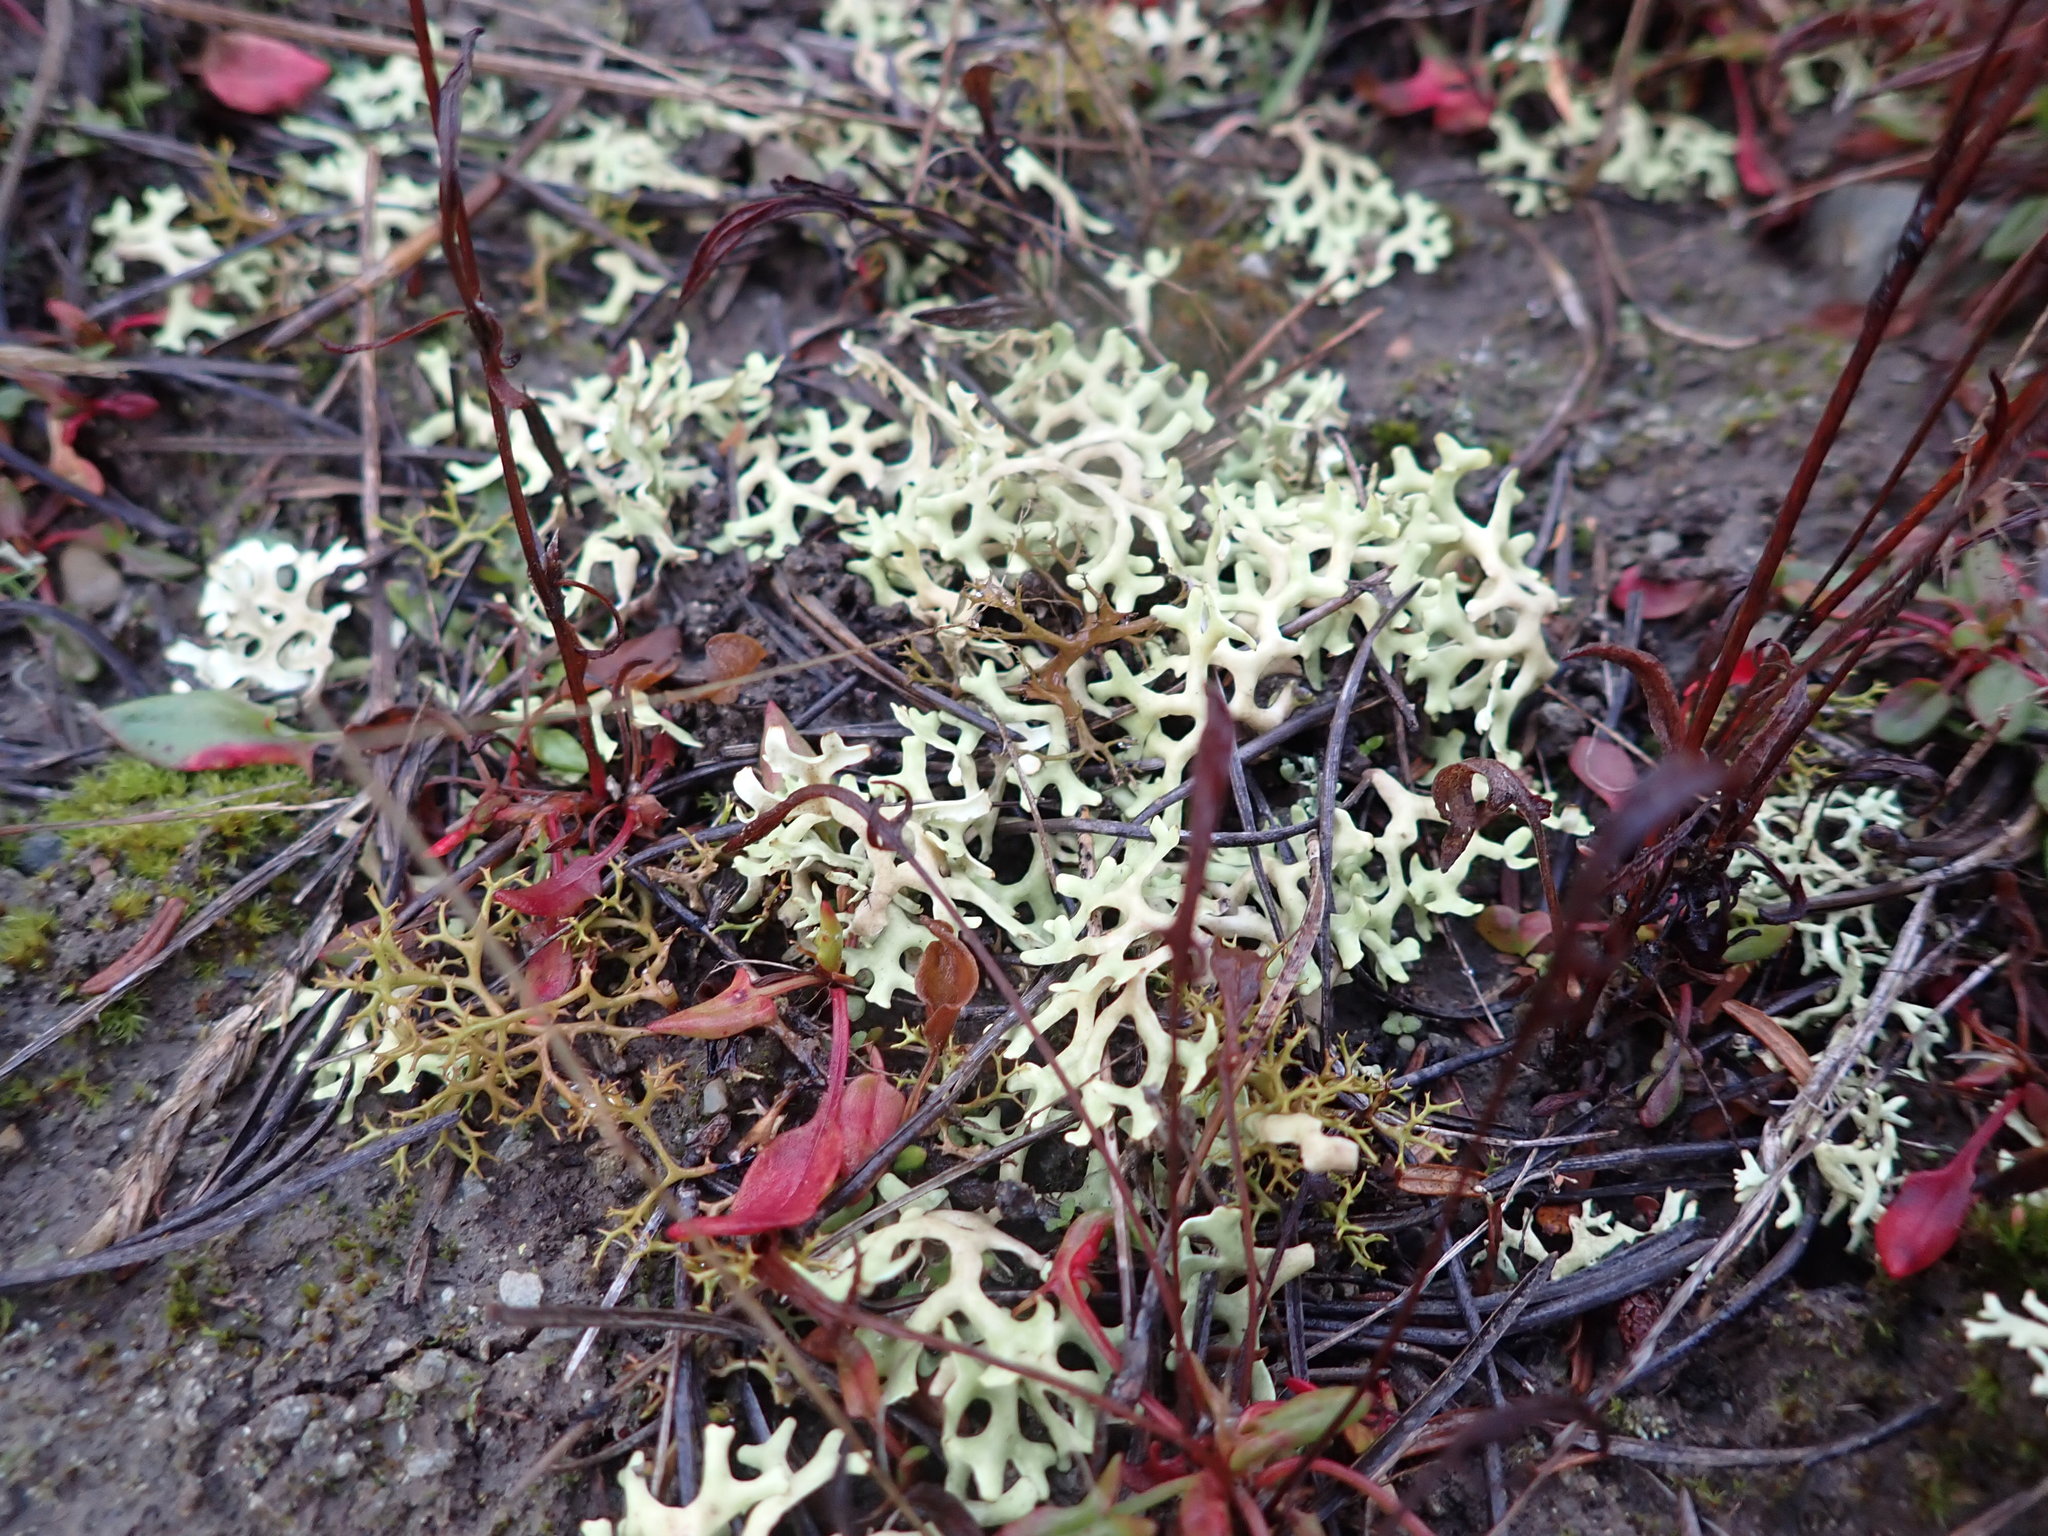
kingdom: Fungi
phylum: Ascomycota
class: Lecanoromycetes
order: Lecanorales
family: Parmeliaceae
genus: Xanthoparmelia
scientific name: Xanthoparmelia semiviridis
